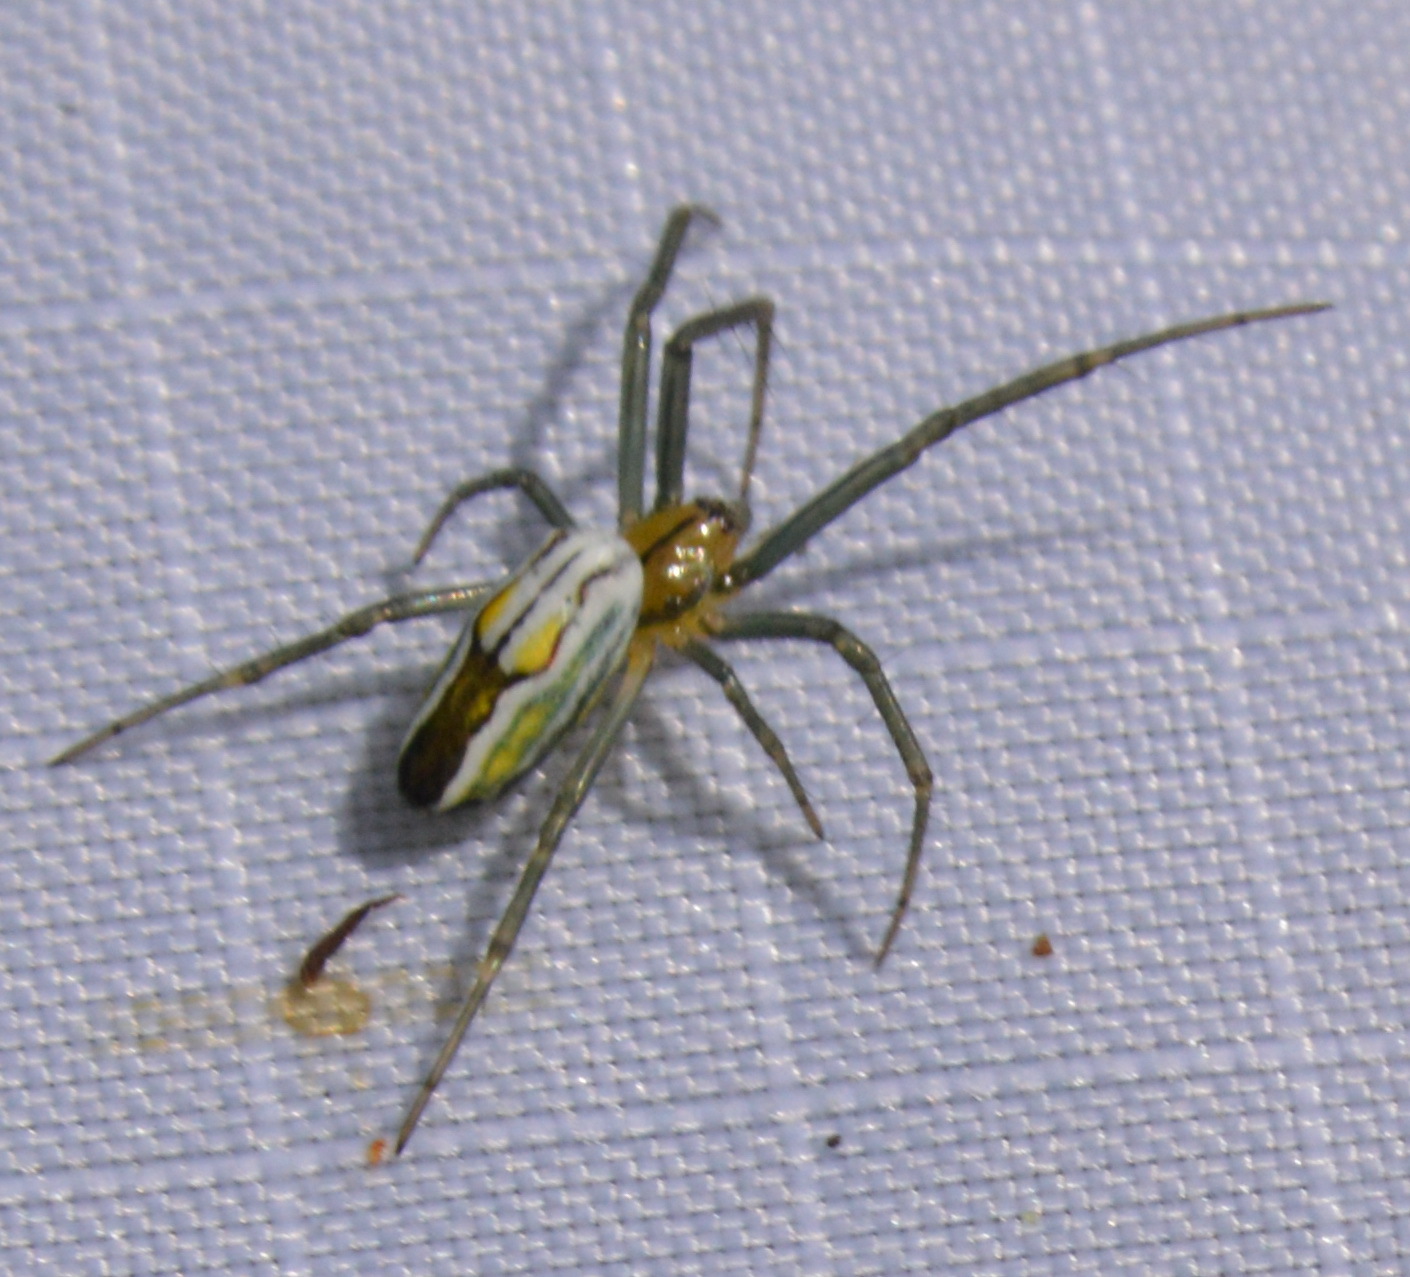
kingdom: Animalia
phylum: Arthropoda
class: Arachnida
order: Araneae
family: Araneidae
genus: Mecynogea
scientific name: Mecynogea lemniscata
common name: Orb weavers
